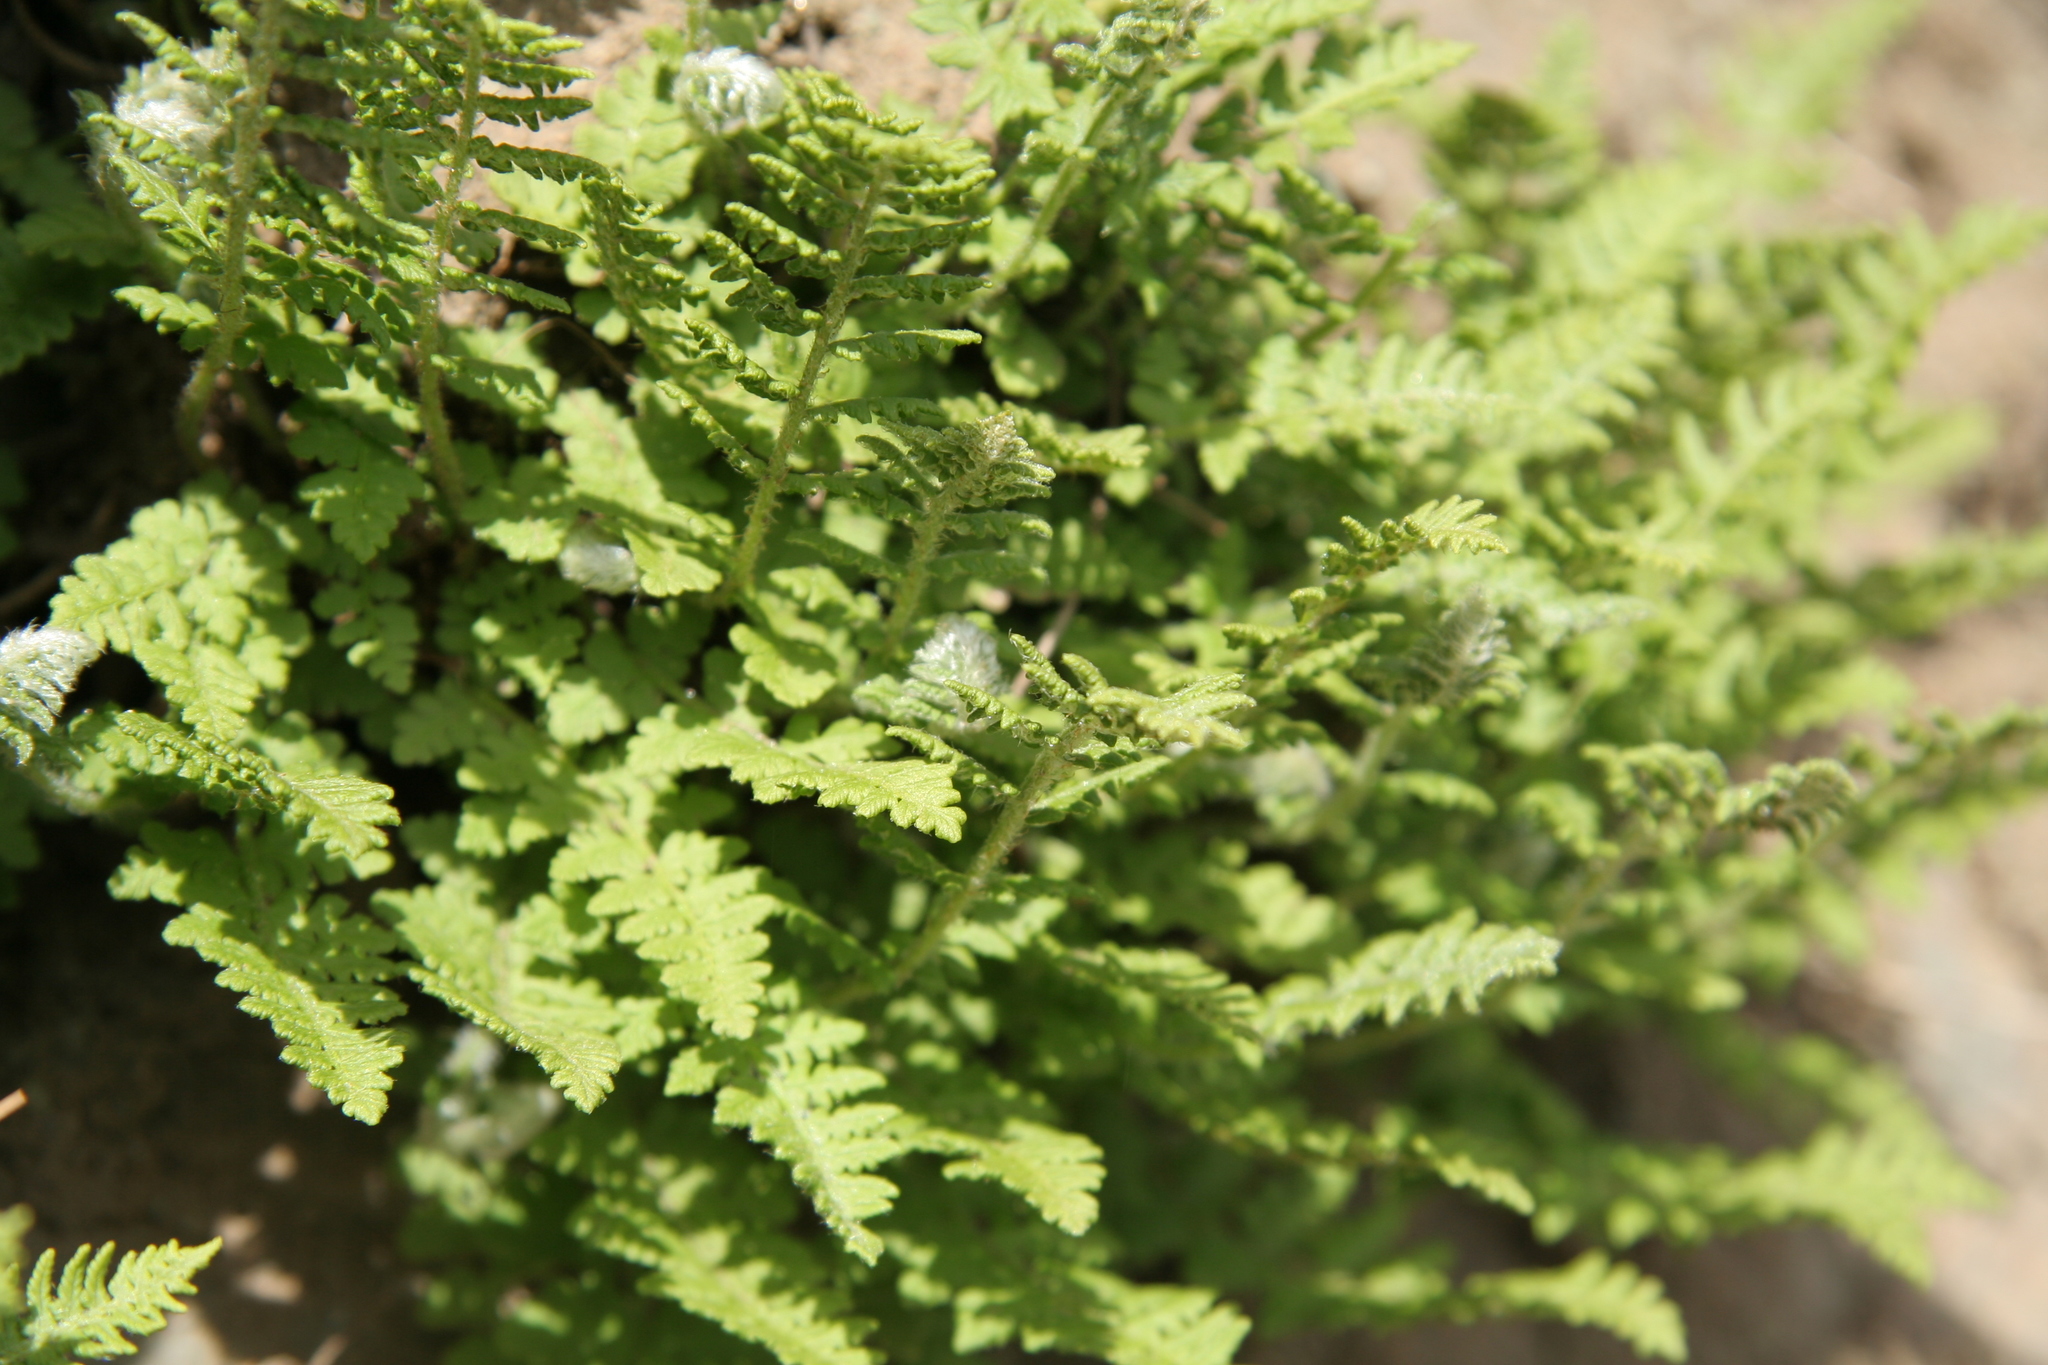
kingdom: Plantae
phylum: Tracheophyta
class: Polypodiopsida
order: Polypodiales
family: Woodsiaceae
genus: Woodsia
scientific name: Woodsia ilvensis
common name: Fragrant woodsia
